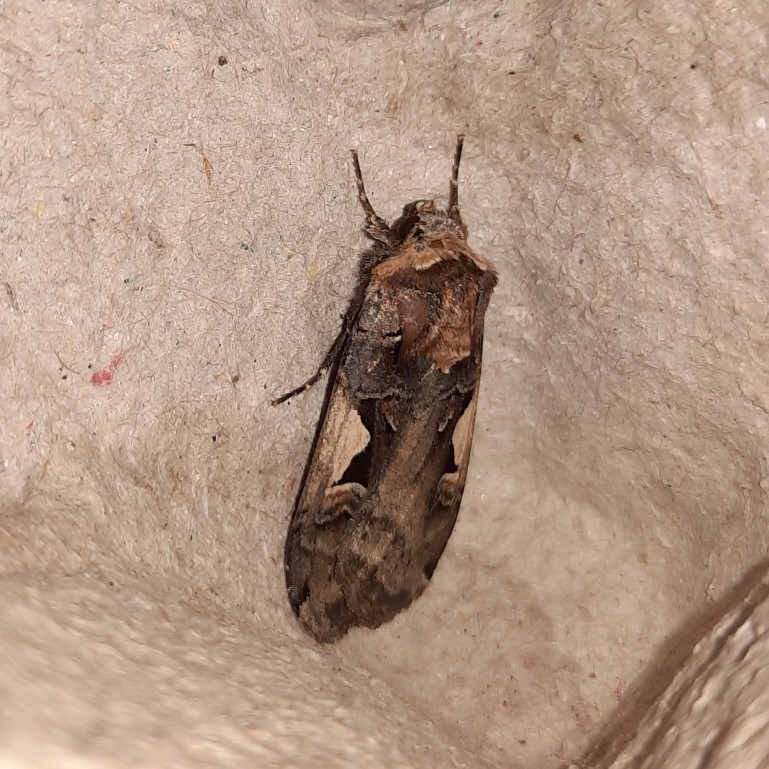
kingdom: Animalia
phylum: Arthropoda
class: Insecta
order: Lepidoptera
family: Noctuidae
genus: Xestia
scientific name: Xestia c-nigrum
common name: Setaceous hebrew character
